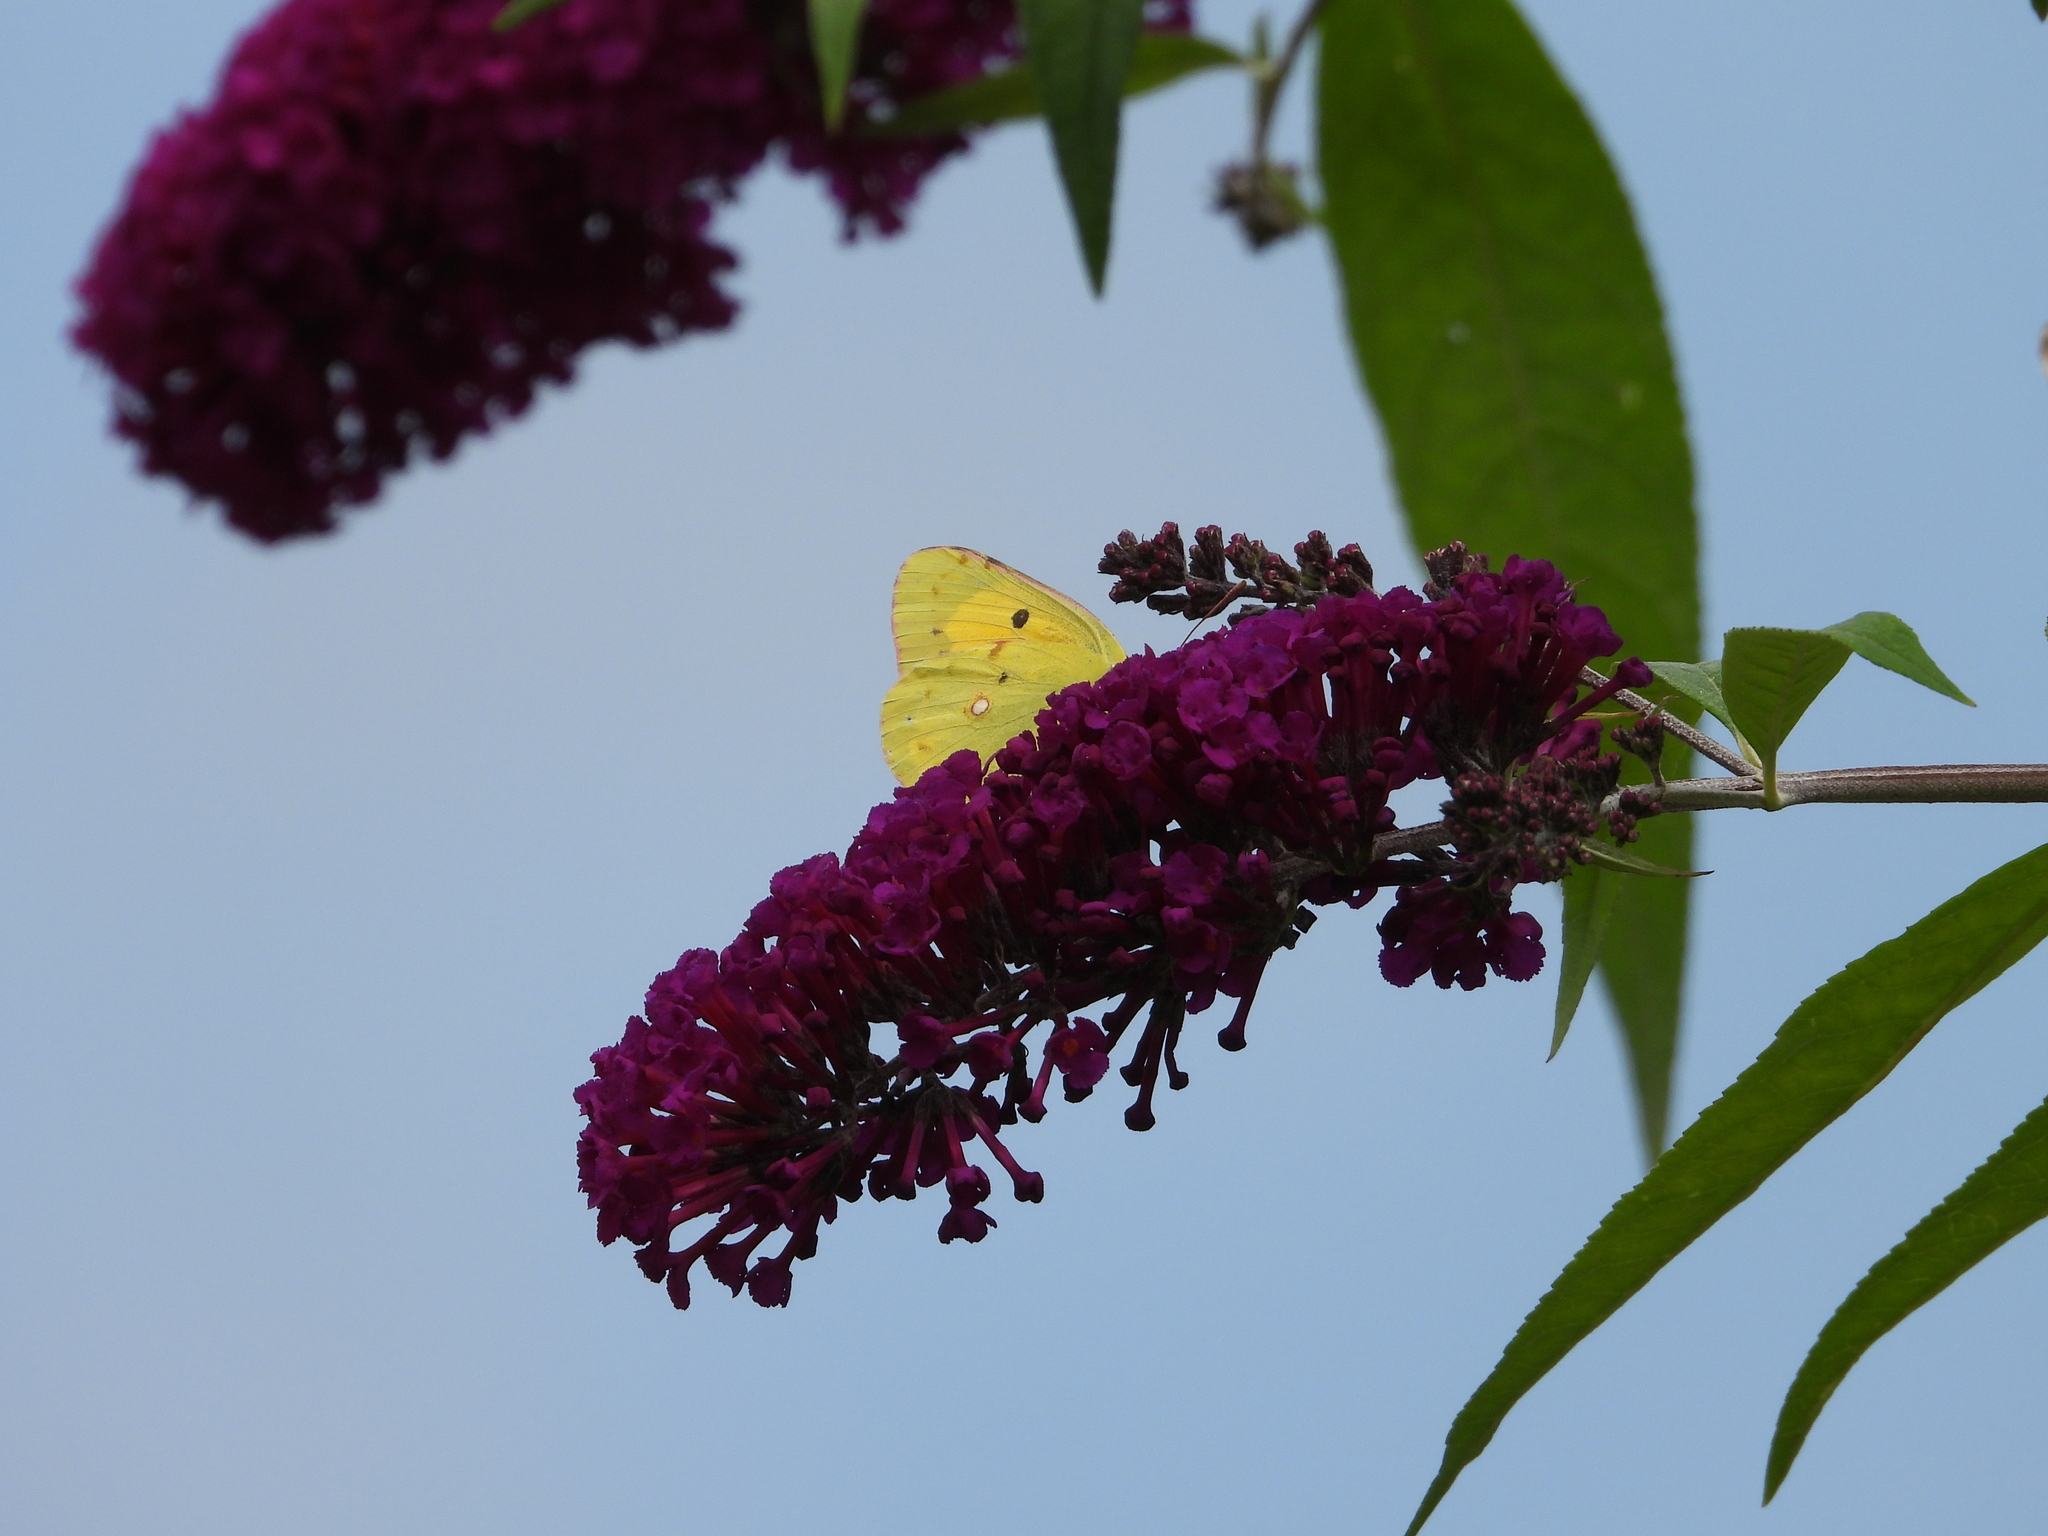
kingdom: Animalia
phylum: Arthropoda
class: Insecta
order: Lepidoptera
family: Pieridae
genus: Colias
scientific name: Colias croceus
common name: Clouded yellow
